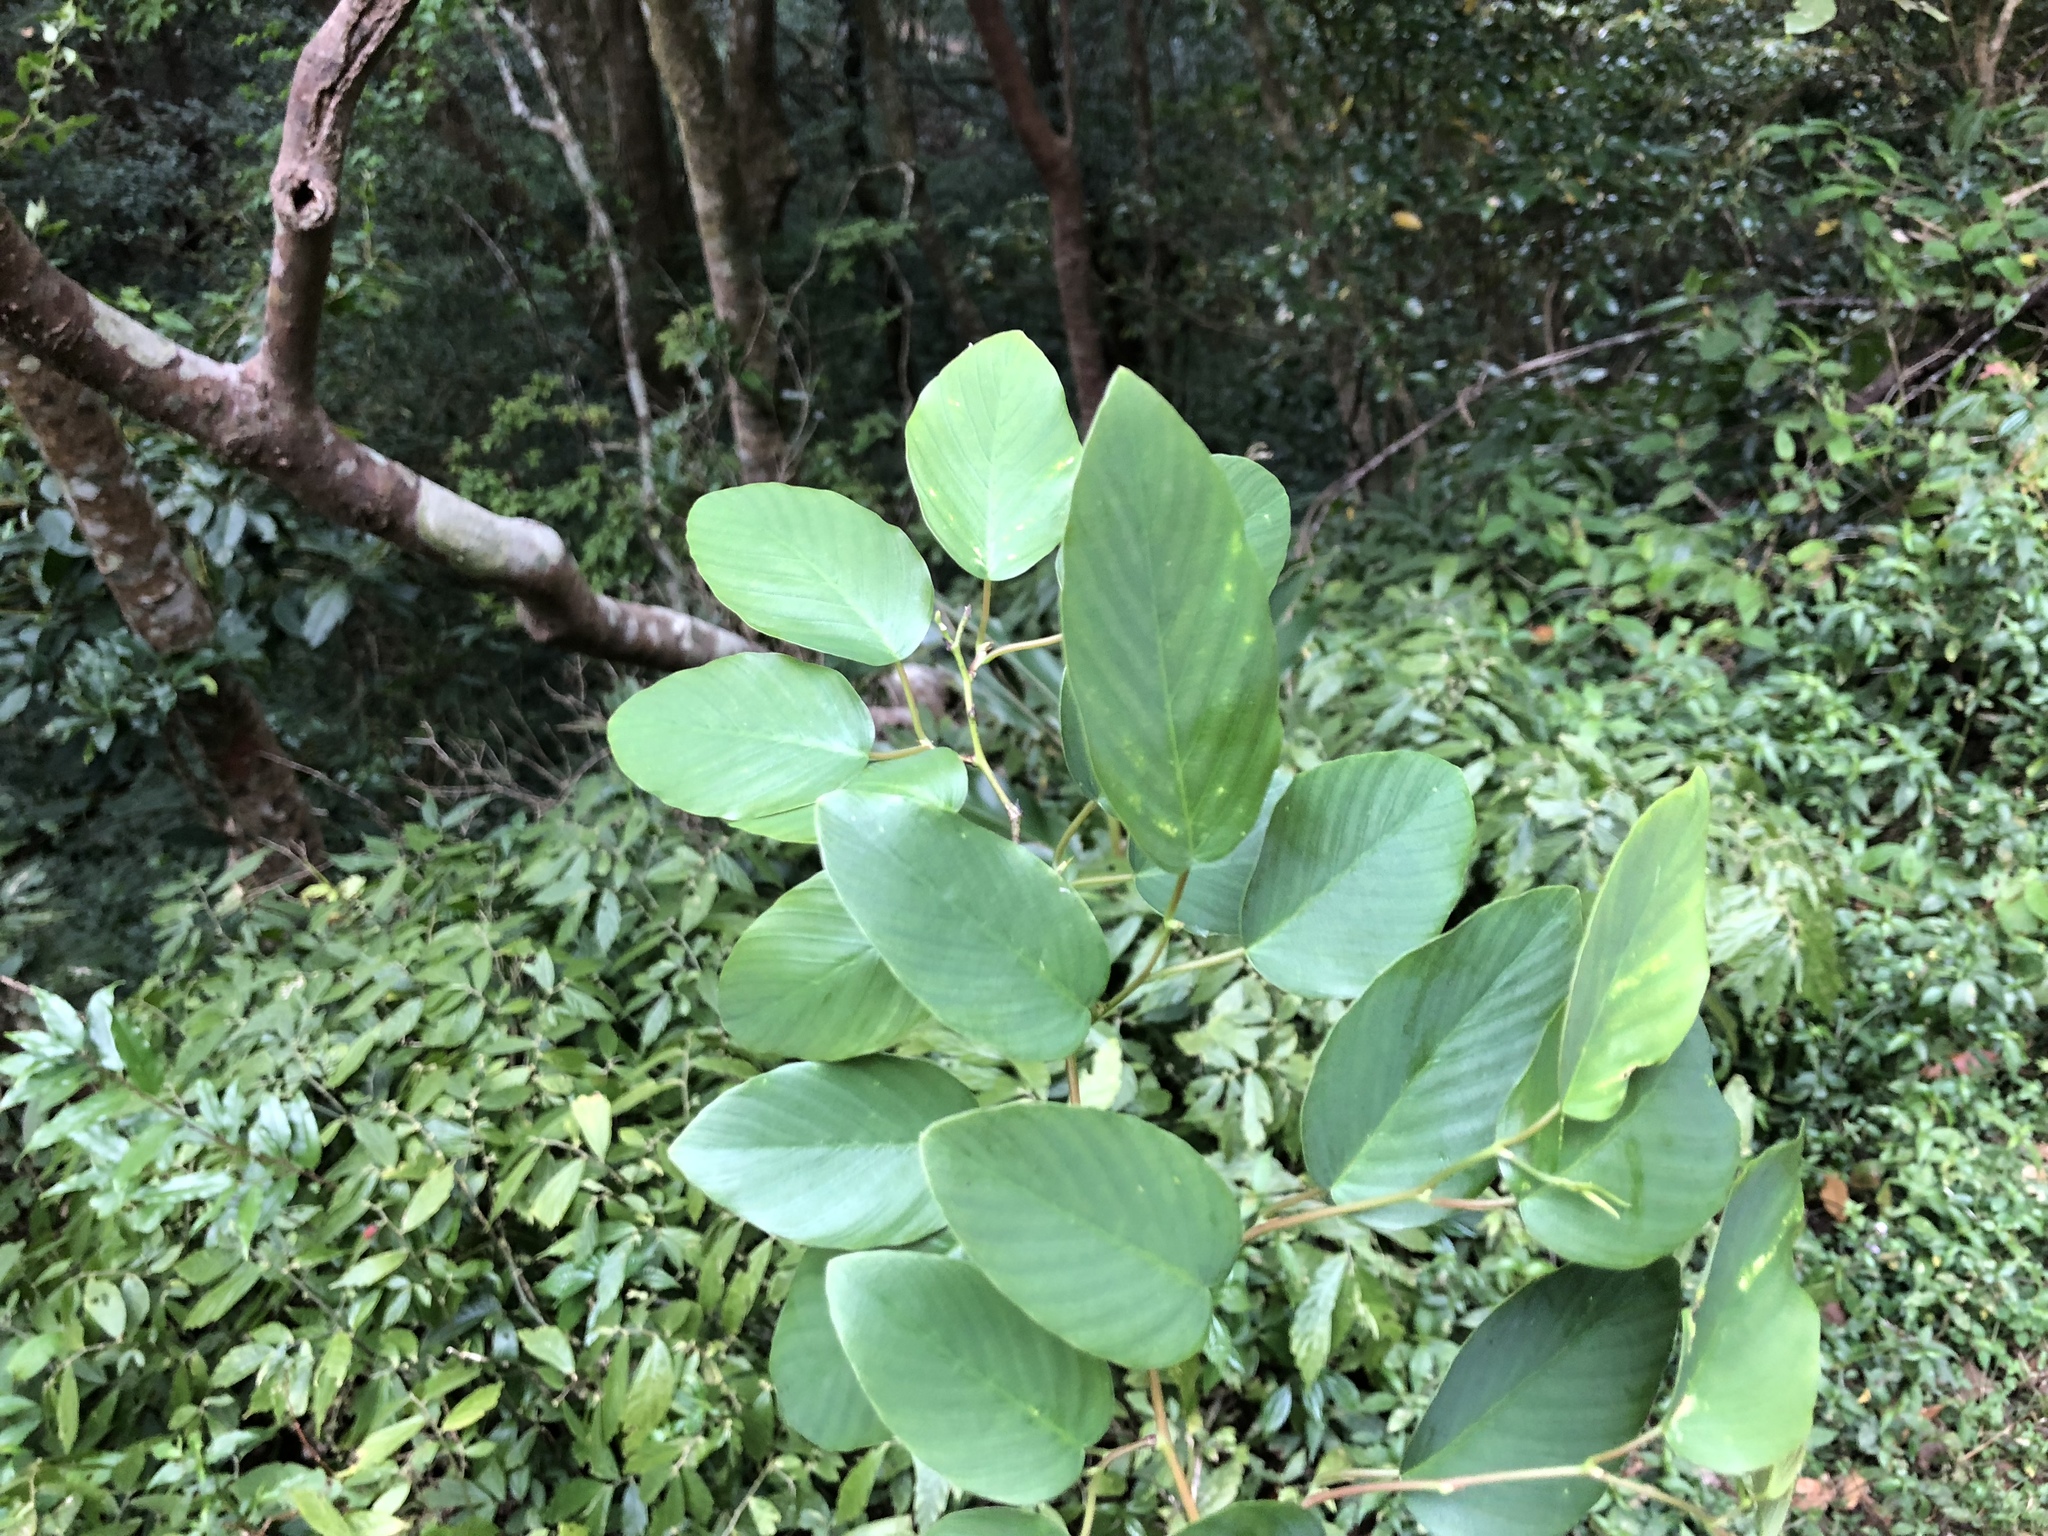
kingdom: Plantae
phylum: Tracheophyta
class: Magnoliopsida
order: Rosales
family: Rhamnaceae
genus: Berchemia
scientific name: Berchemia floribunda
